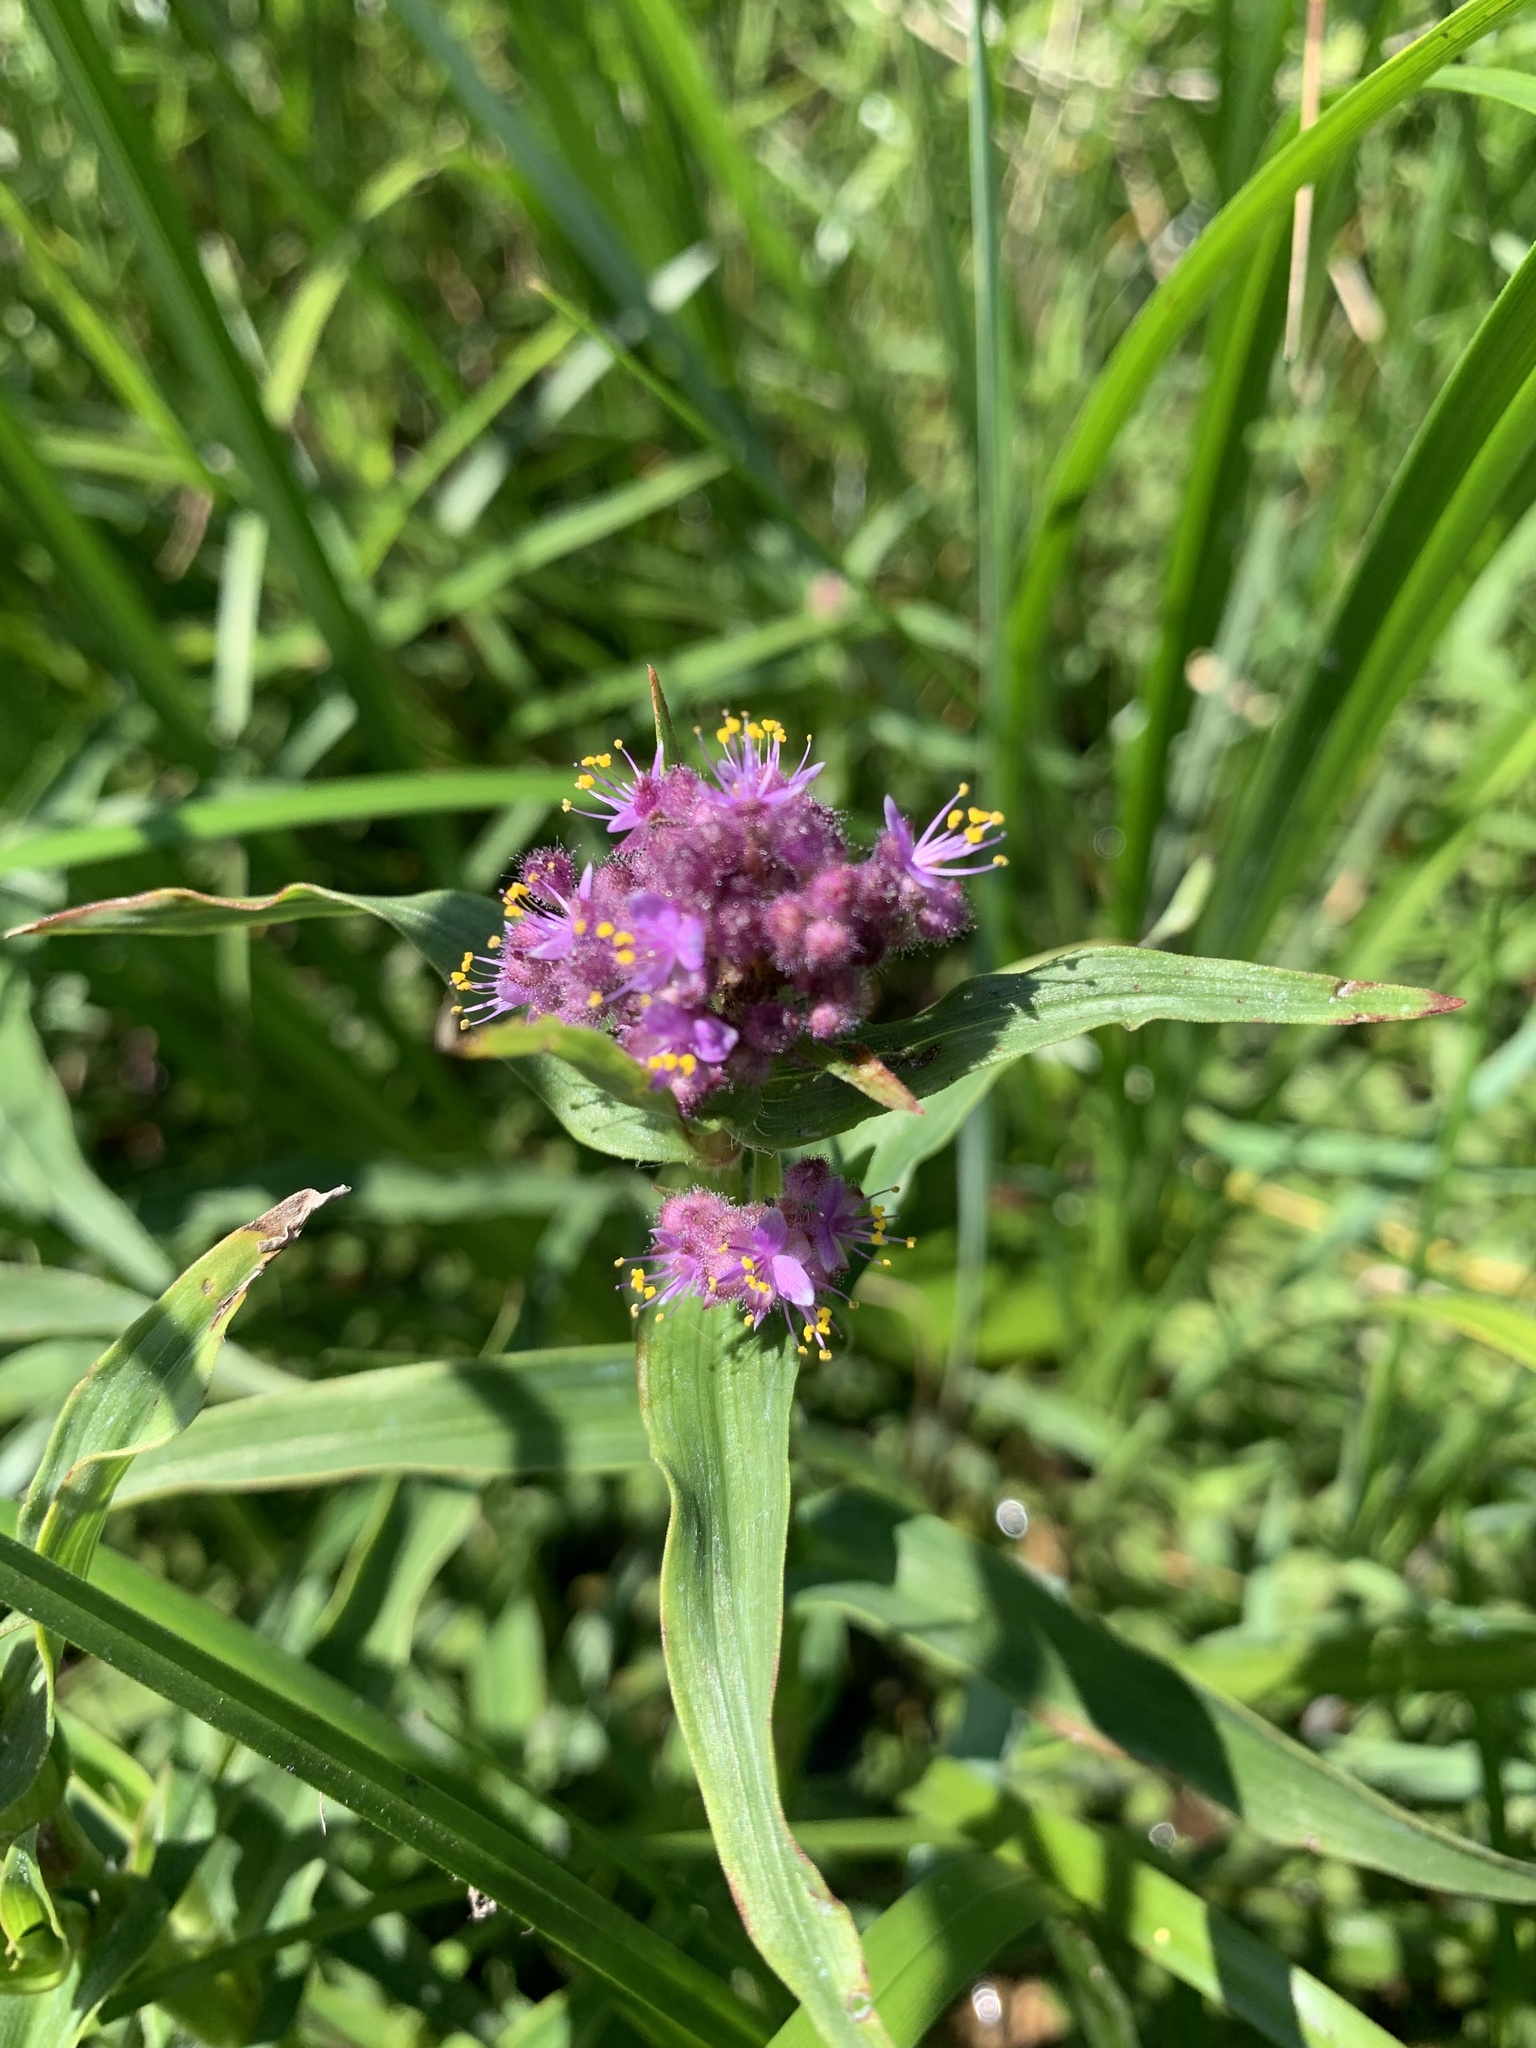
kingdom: Plantae
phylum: Tracheophyta
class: Liliopsida
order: Commelinales
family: Commelinaceae
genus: Floscopa
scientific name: Floscopa glomerata
